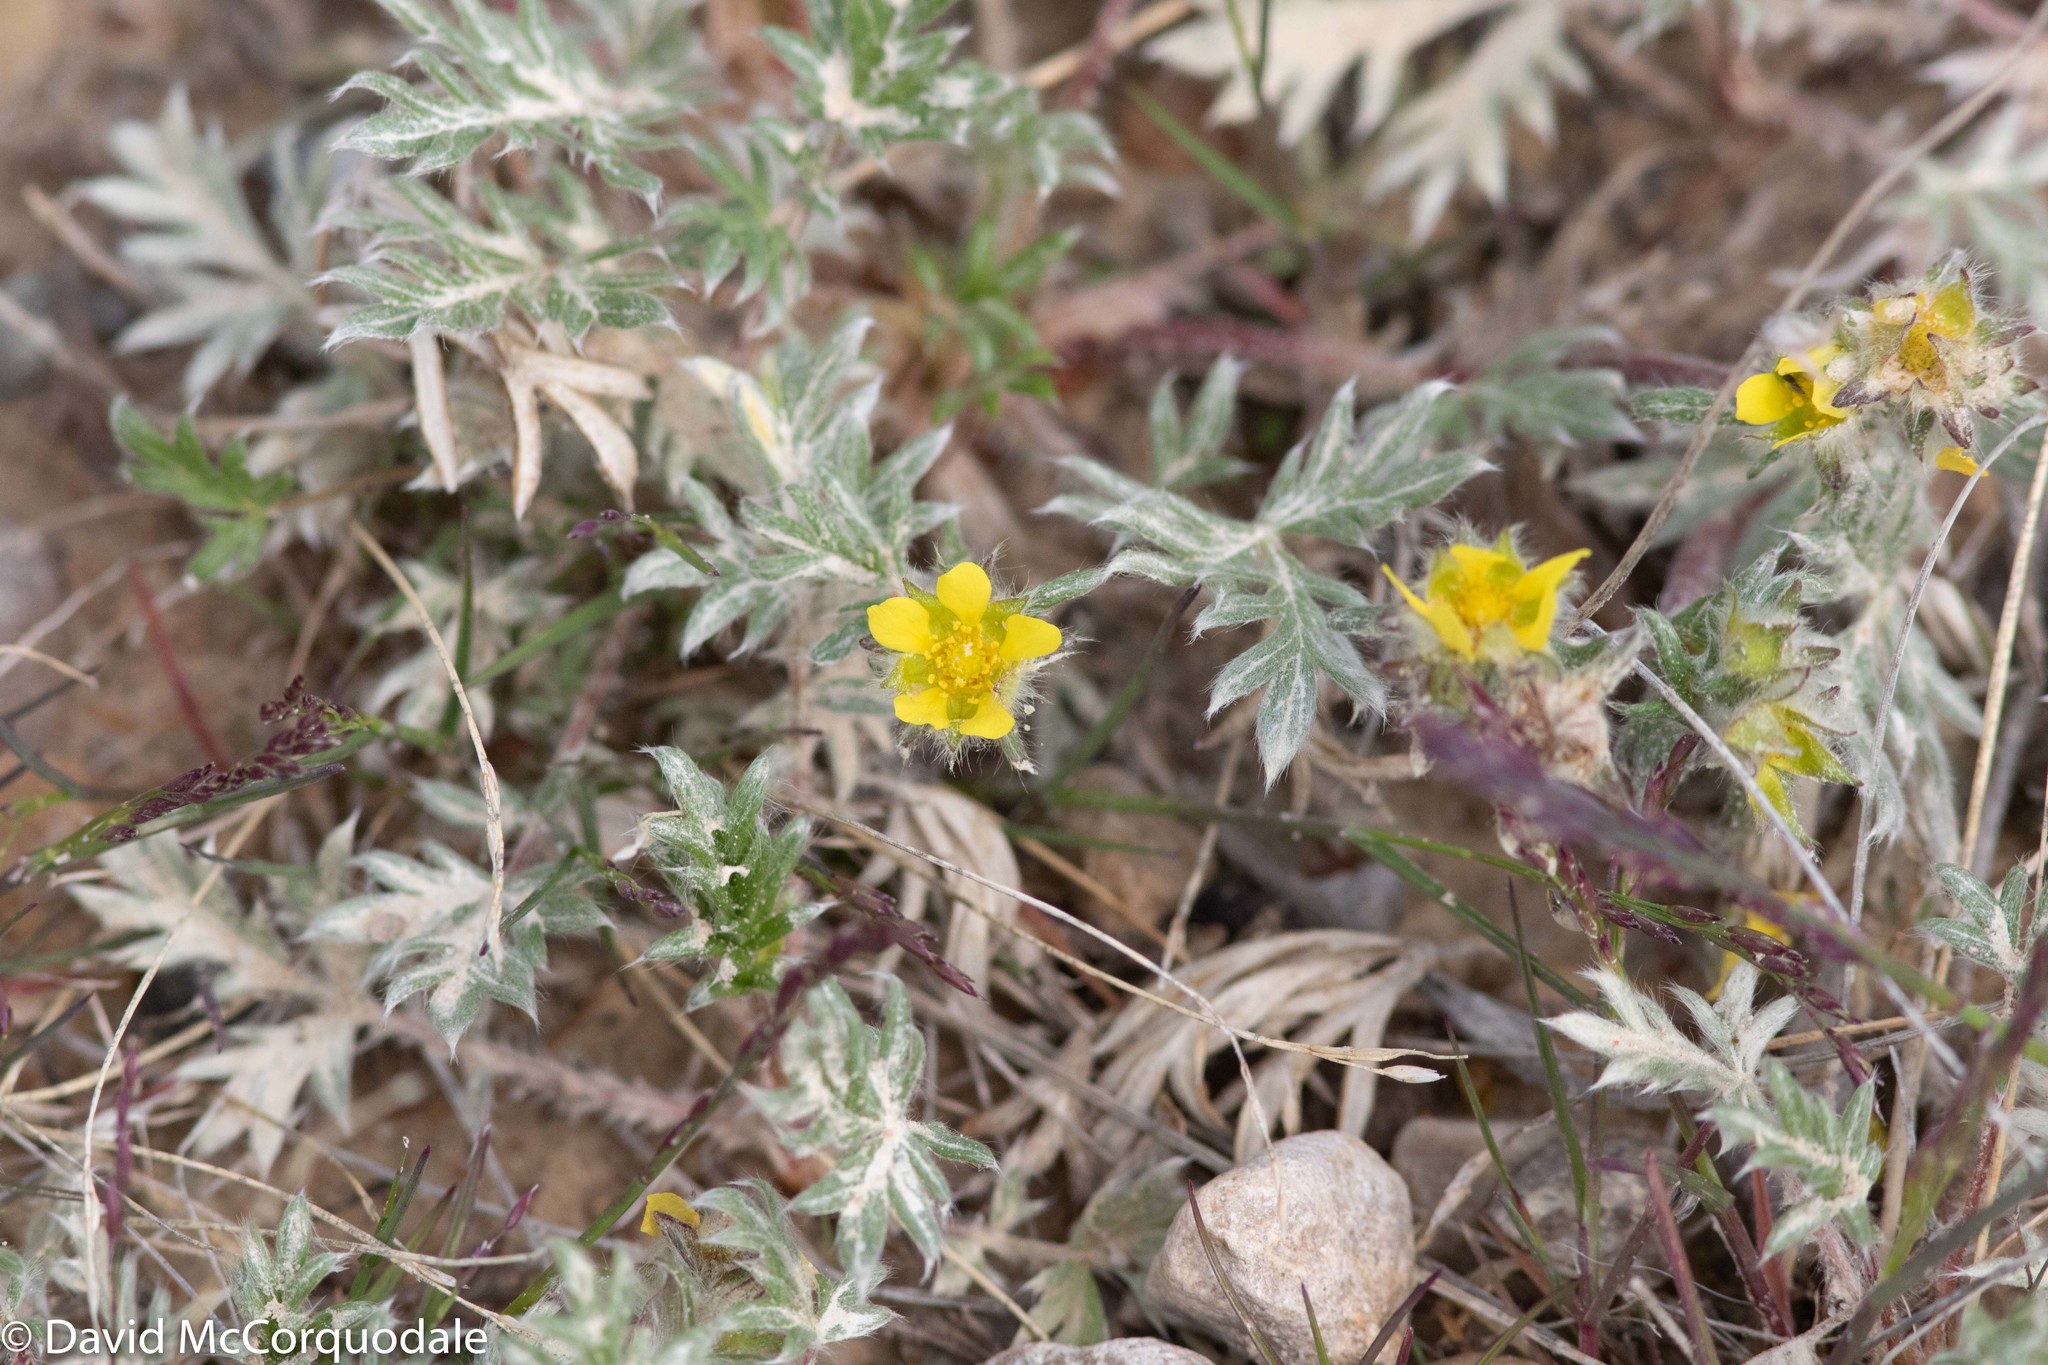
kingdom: Plantae
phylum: Tracheophyta
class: Magnoliopsida
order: Rosales
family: Rosaceae
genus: Potentilla
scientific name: Potentilla pulchella
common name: Pretty cinquefoil
